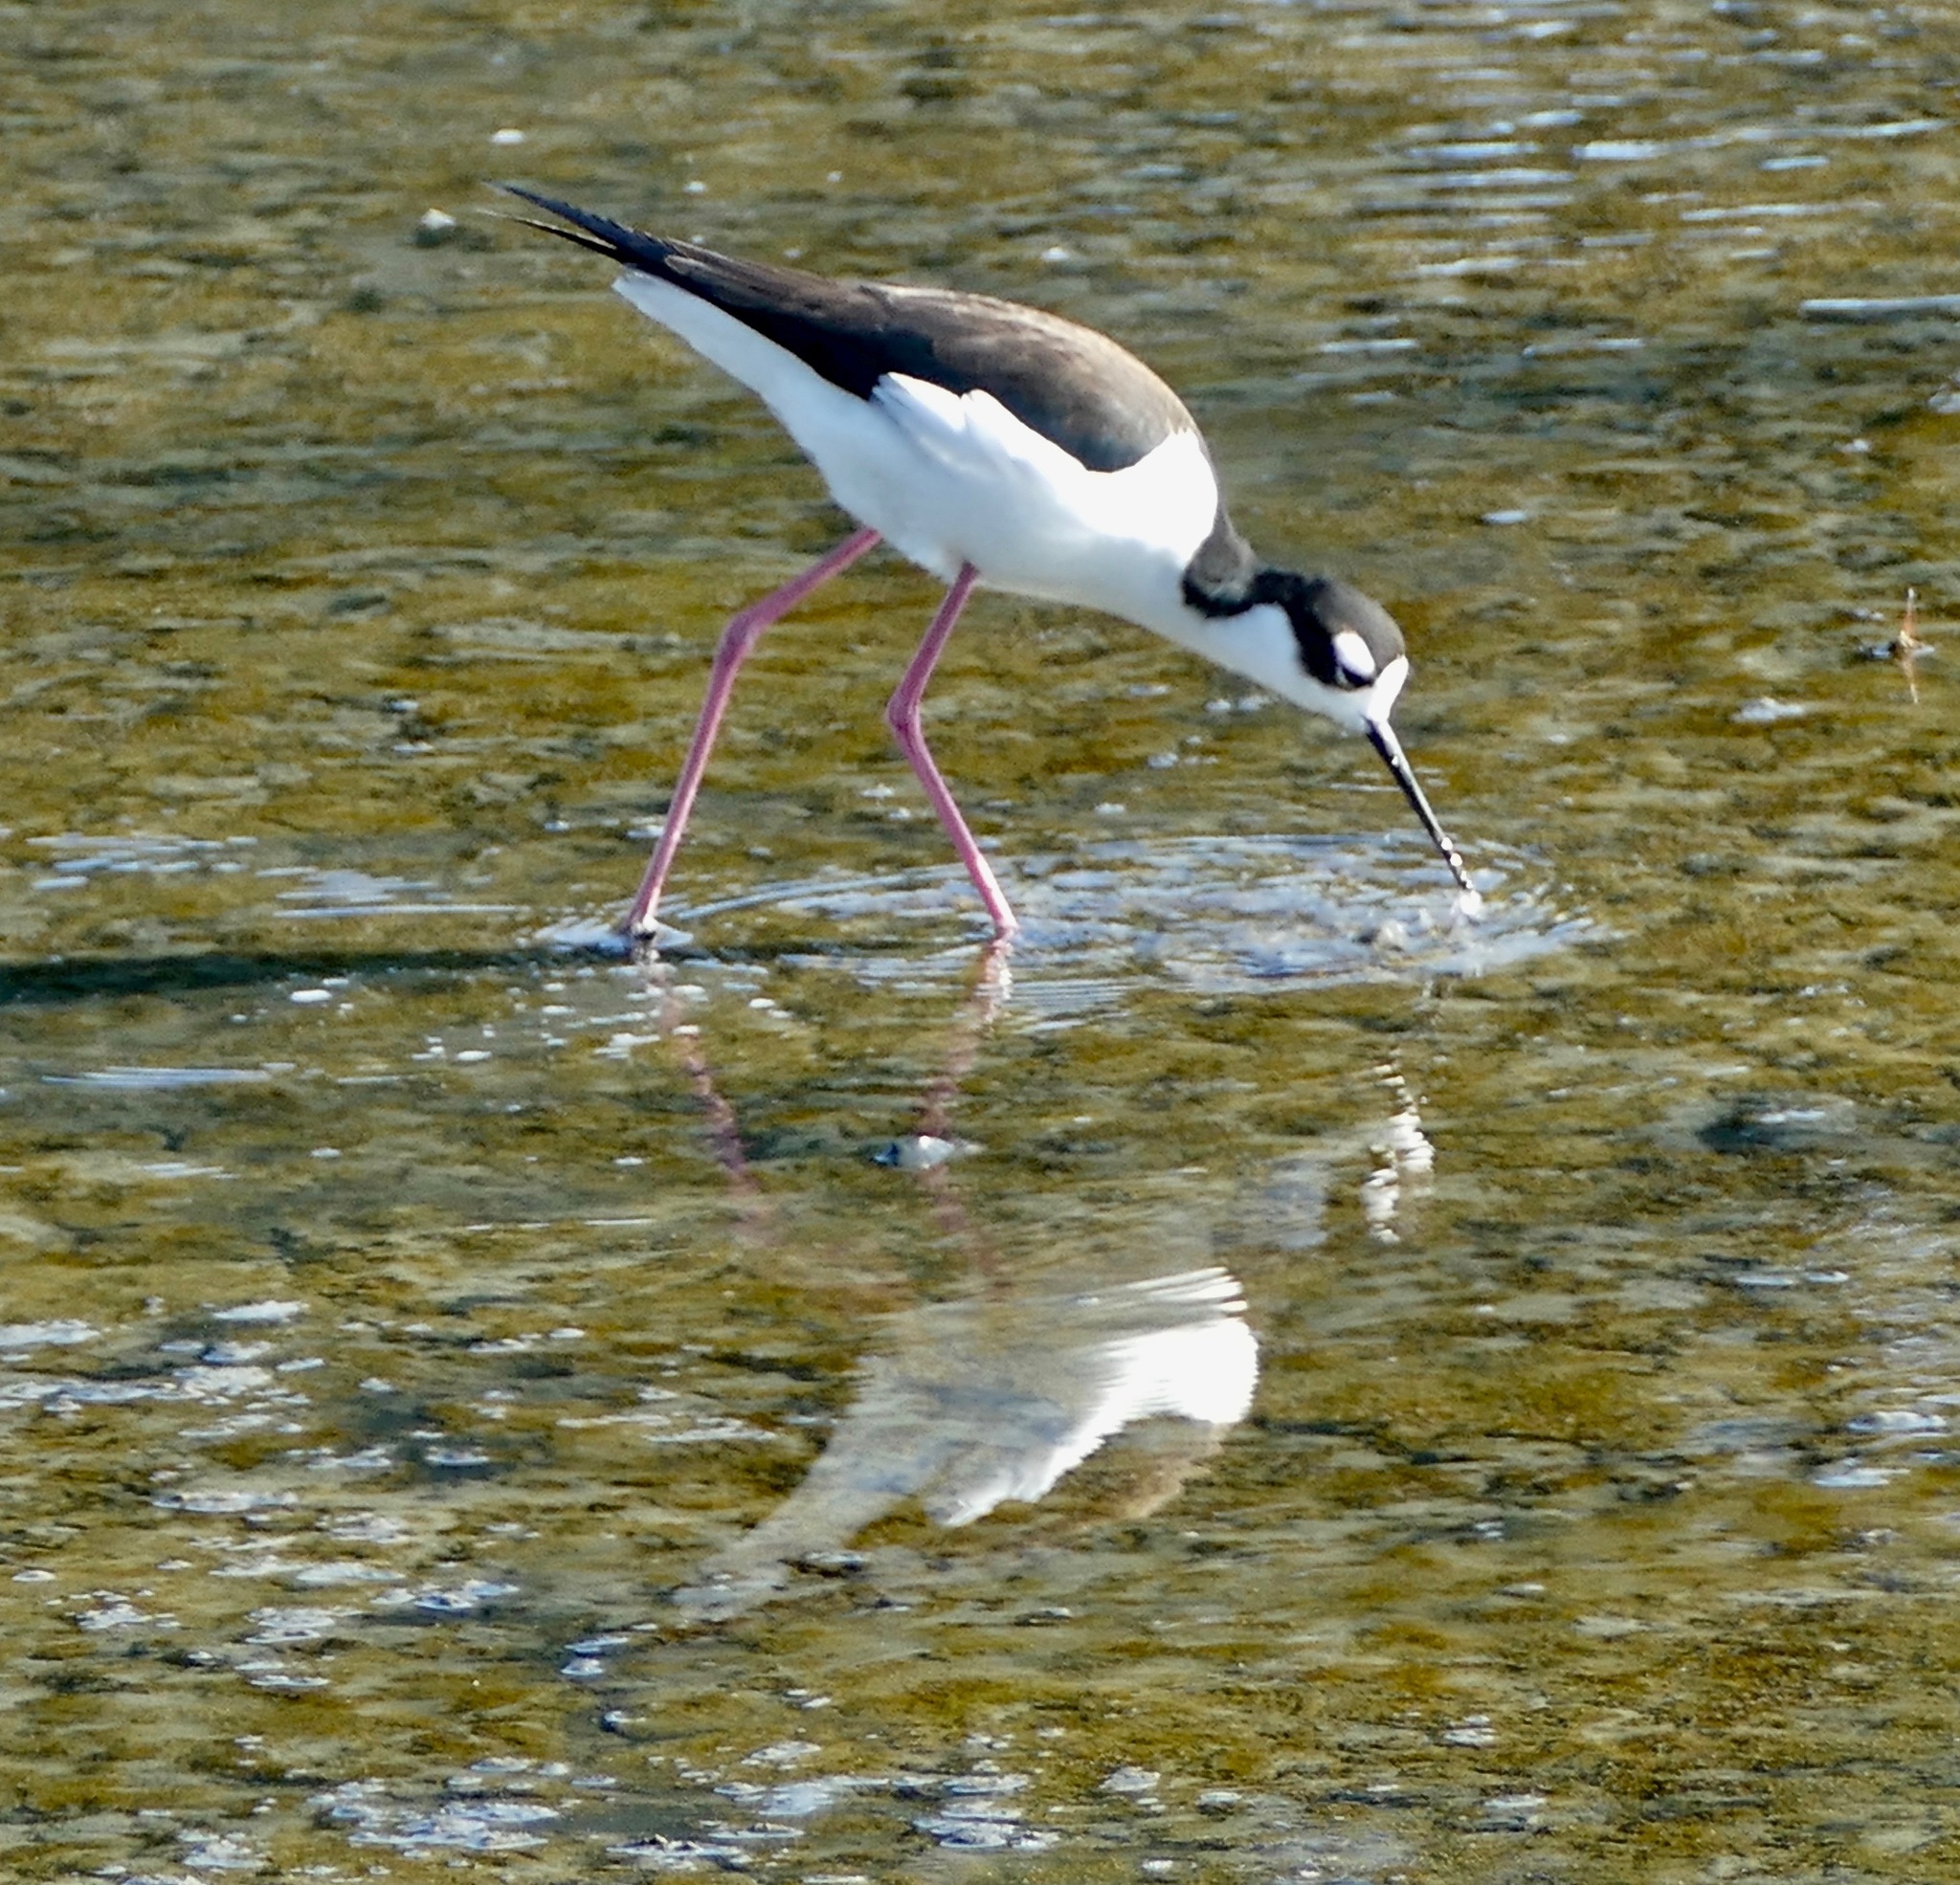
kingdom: Animalia
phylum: Chordata
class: Aves
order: Charadriiformes
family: Recurvirostridae
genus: Himantopus
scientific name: Himantopus mexicanus
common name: Black-necked stilt
